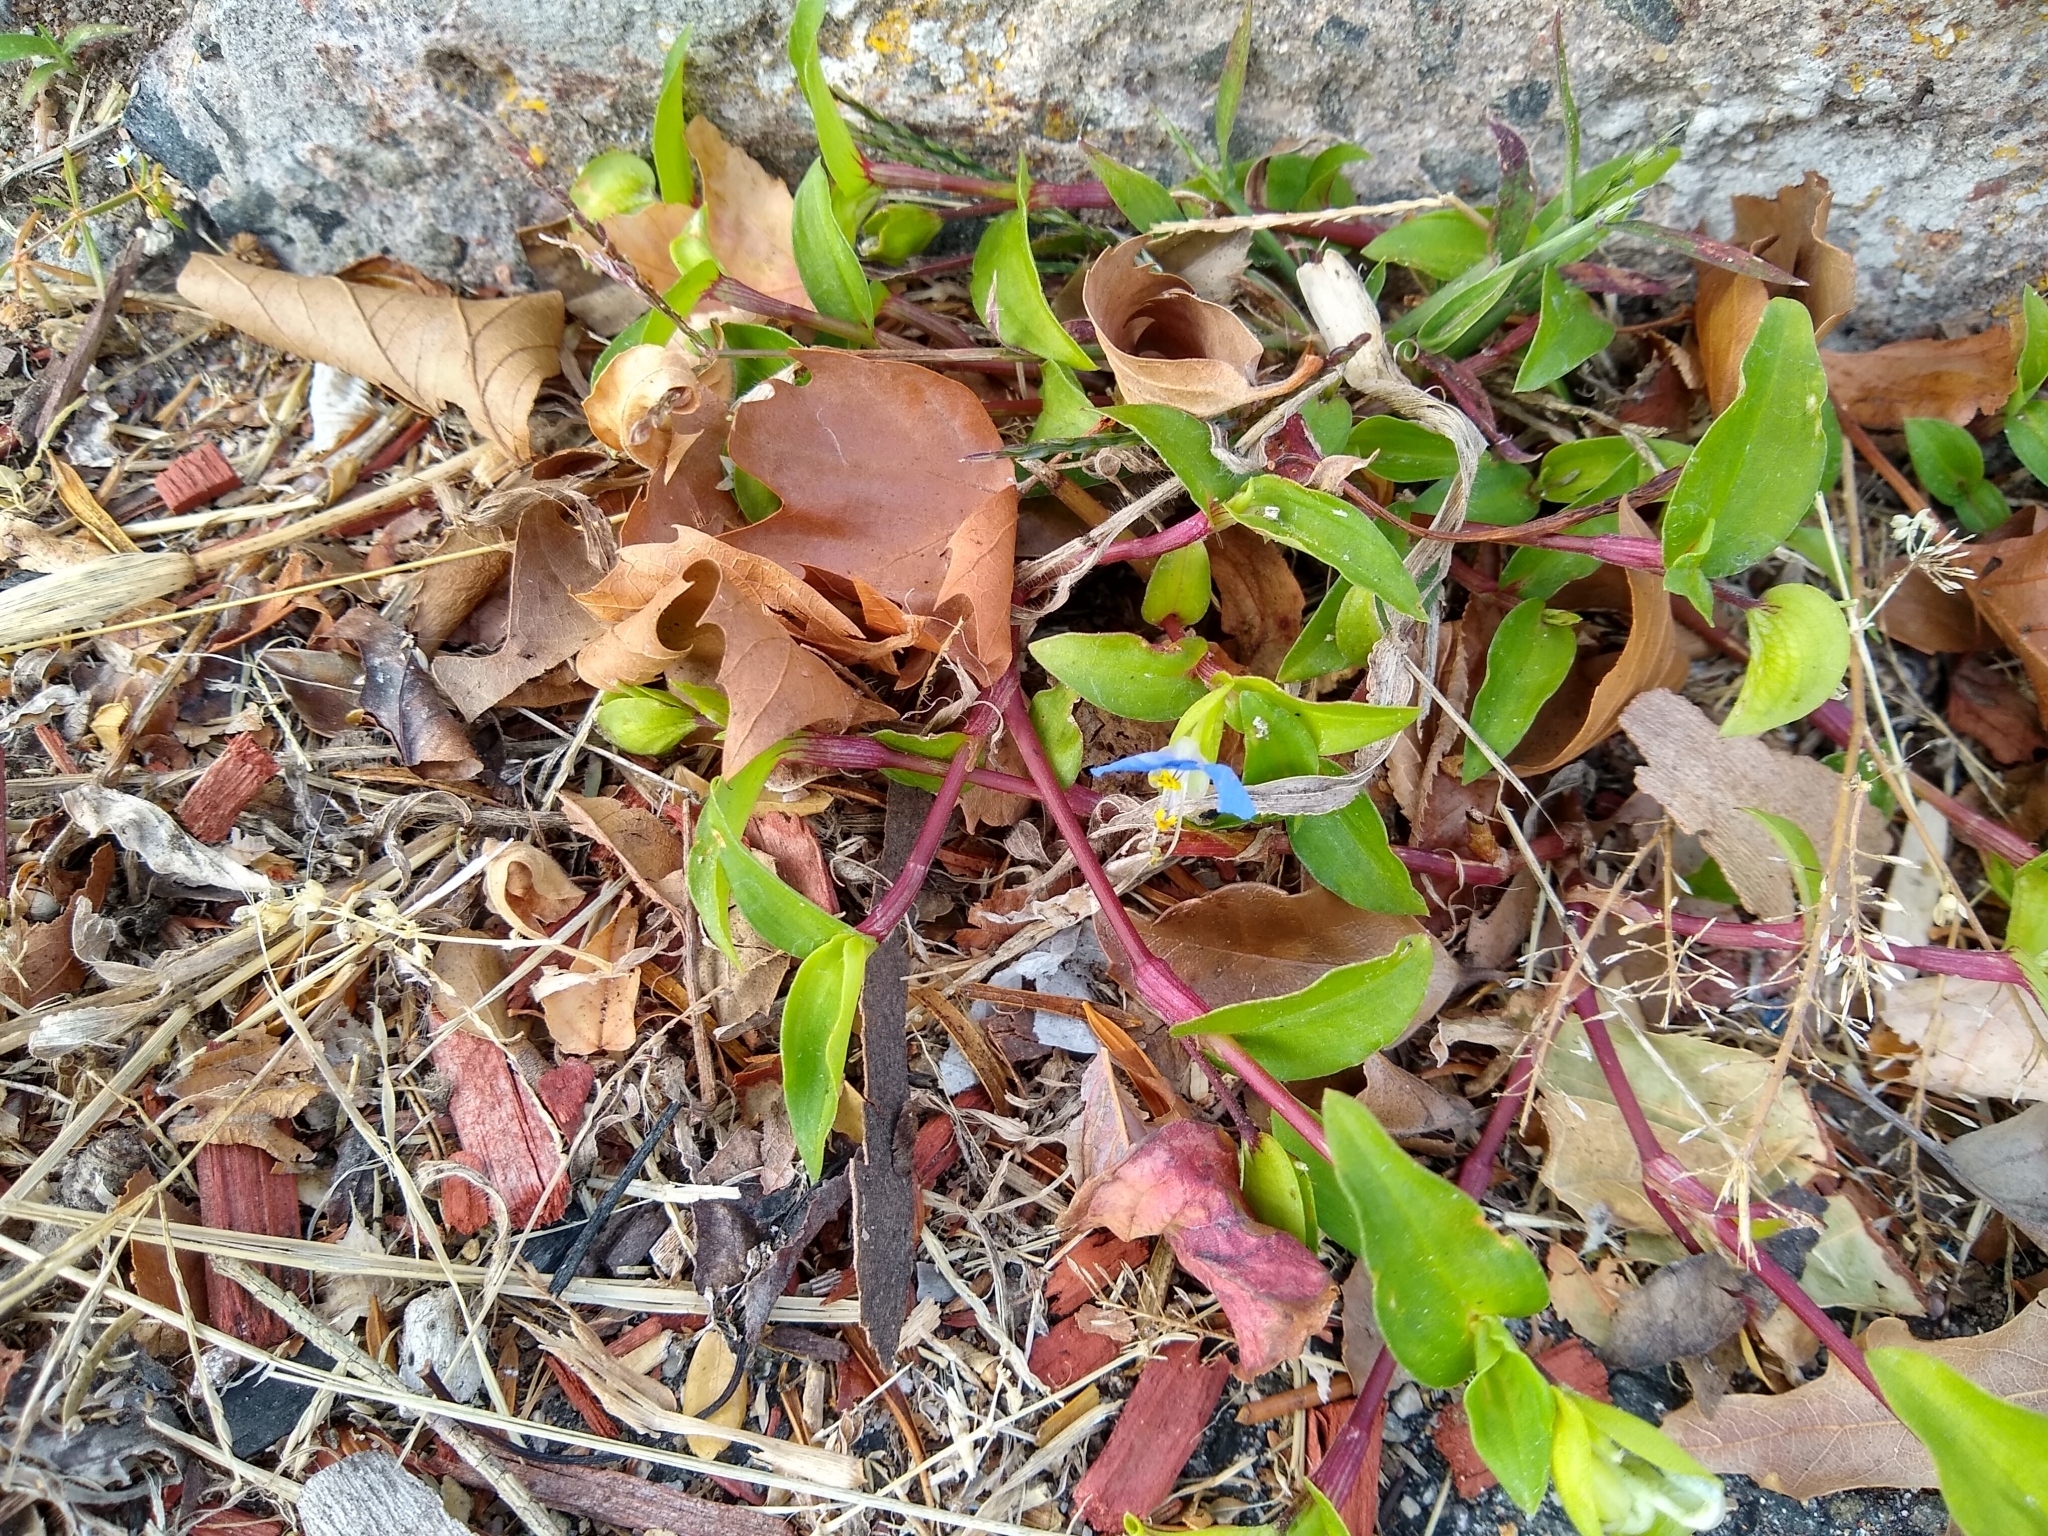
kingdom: Plantae
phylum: Tracheophyta
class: Liliopsida
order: Commelinales
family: Commelinaceae
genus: Commelina
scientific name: Commelina communis
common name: Asiatic dayflower
